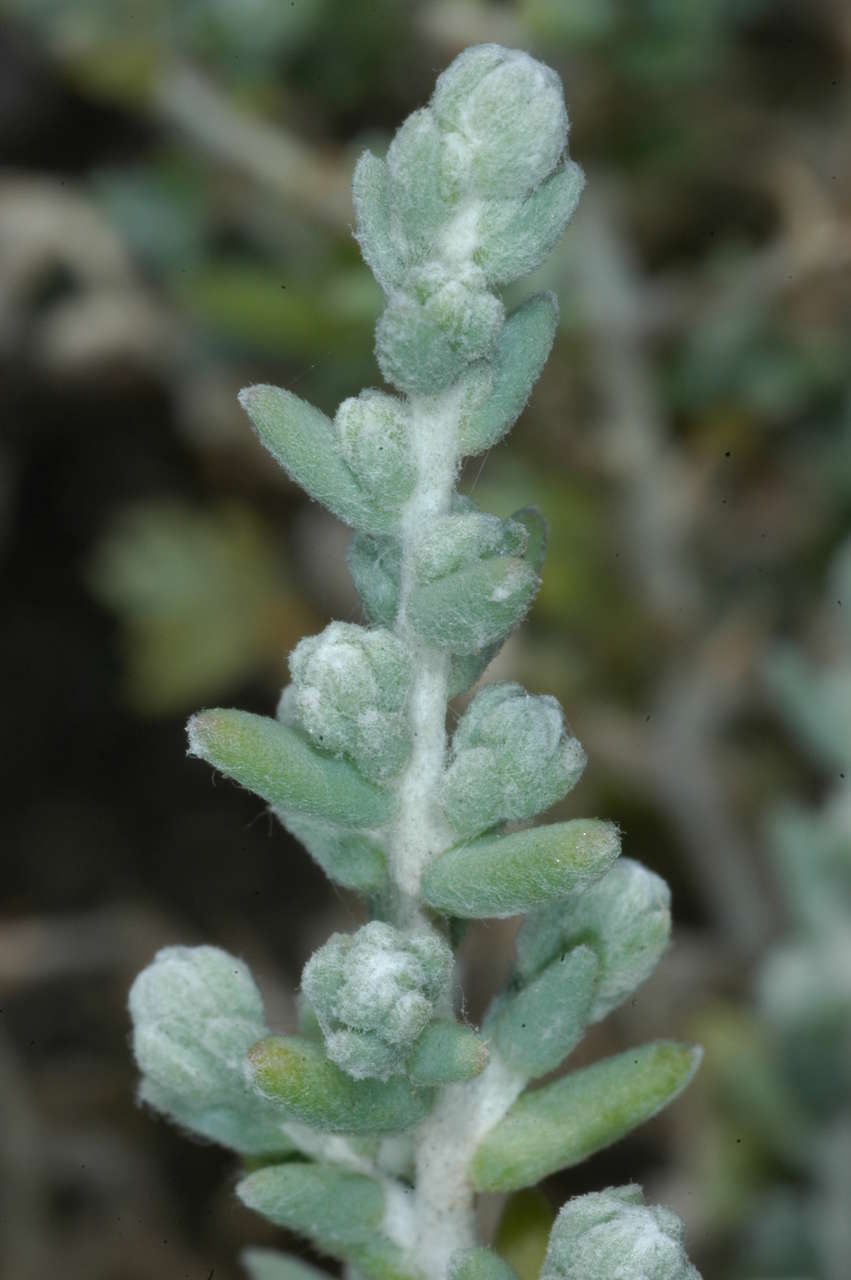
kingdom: Plantae
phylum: Tracheophyta
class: Magnoliopsida
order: Caryophyllales
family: Amaranthaceae
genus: Dissocarpus
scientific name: Dissocarpus paradoxus
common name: Bur-saltbush
